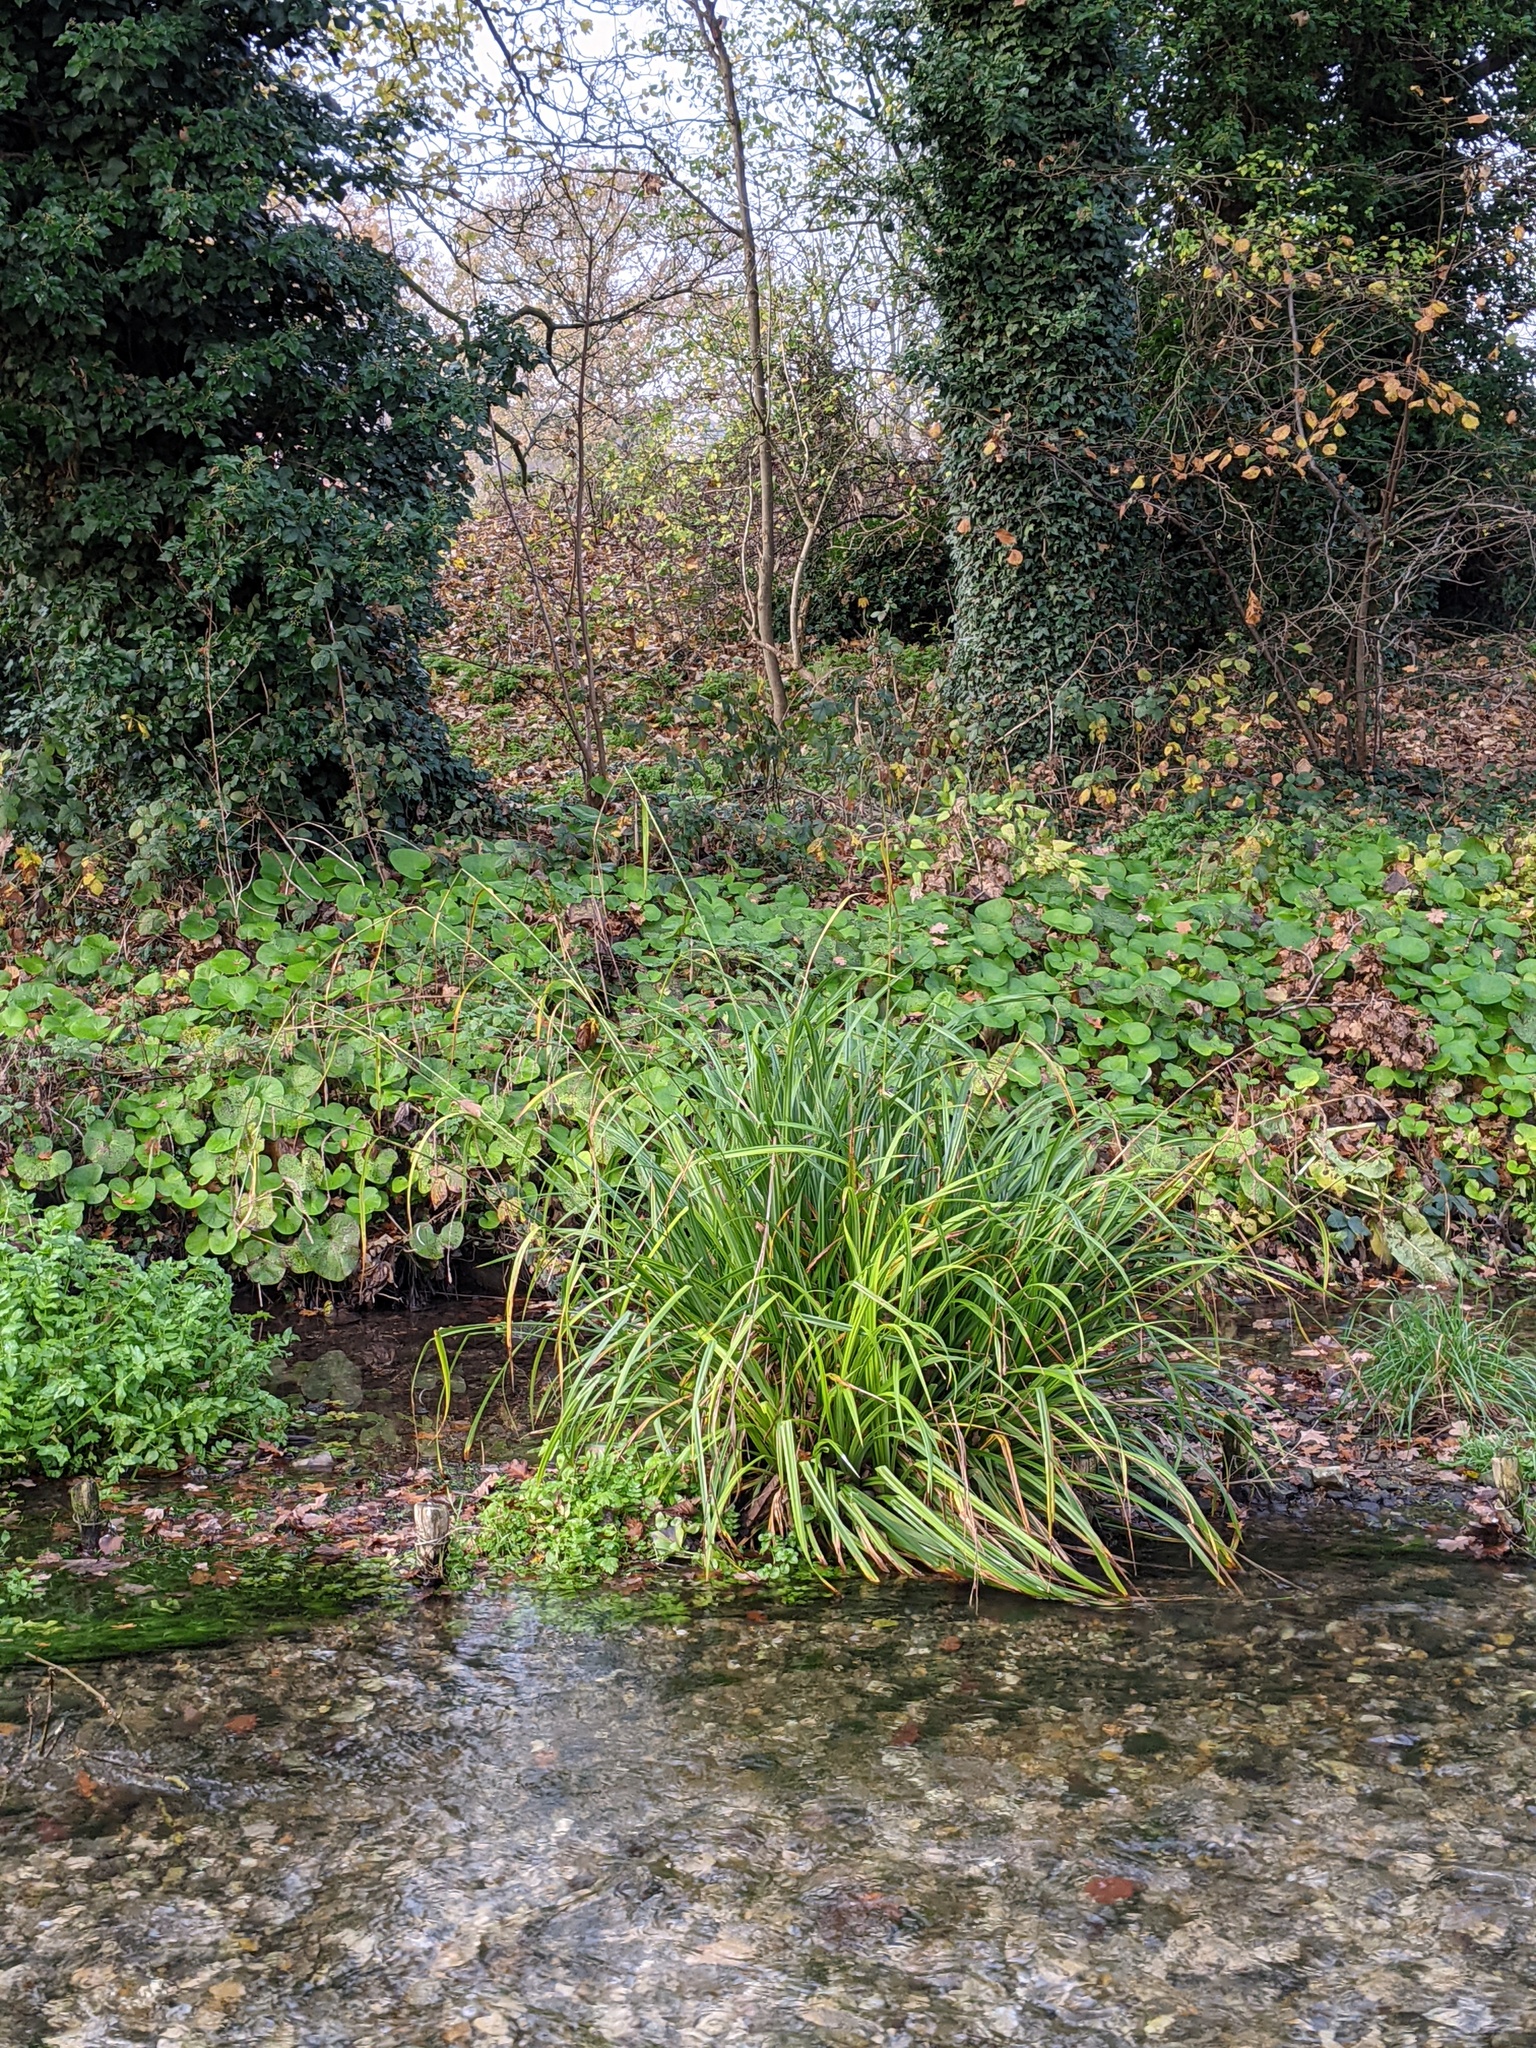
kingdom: Plantae
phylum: Tracheophyta
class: Liliopsida
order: Poales
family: Cyperaceae
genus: Carex
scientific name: Carex pendula
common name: Pendulous sedge
